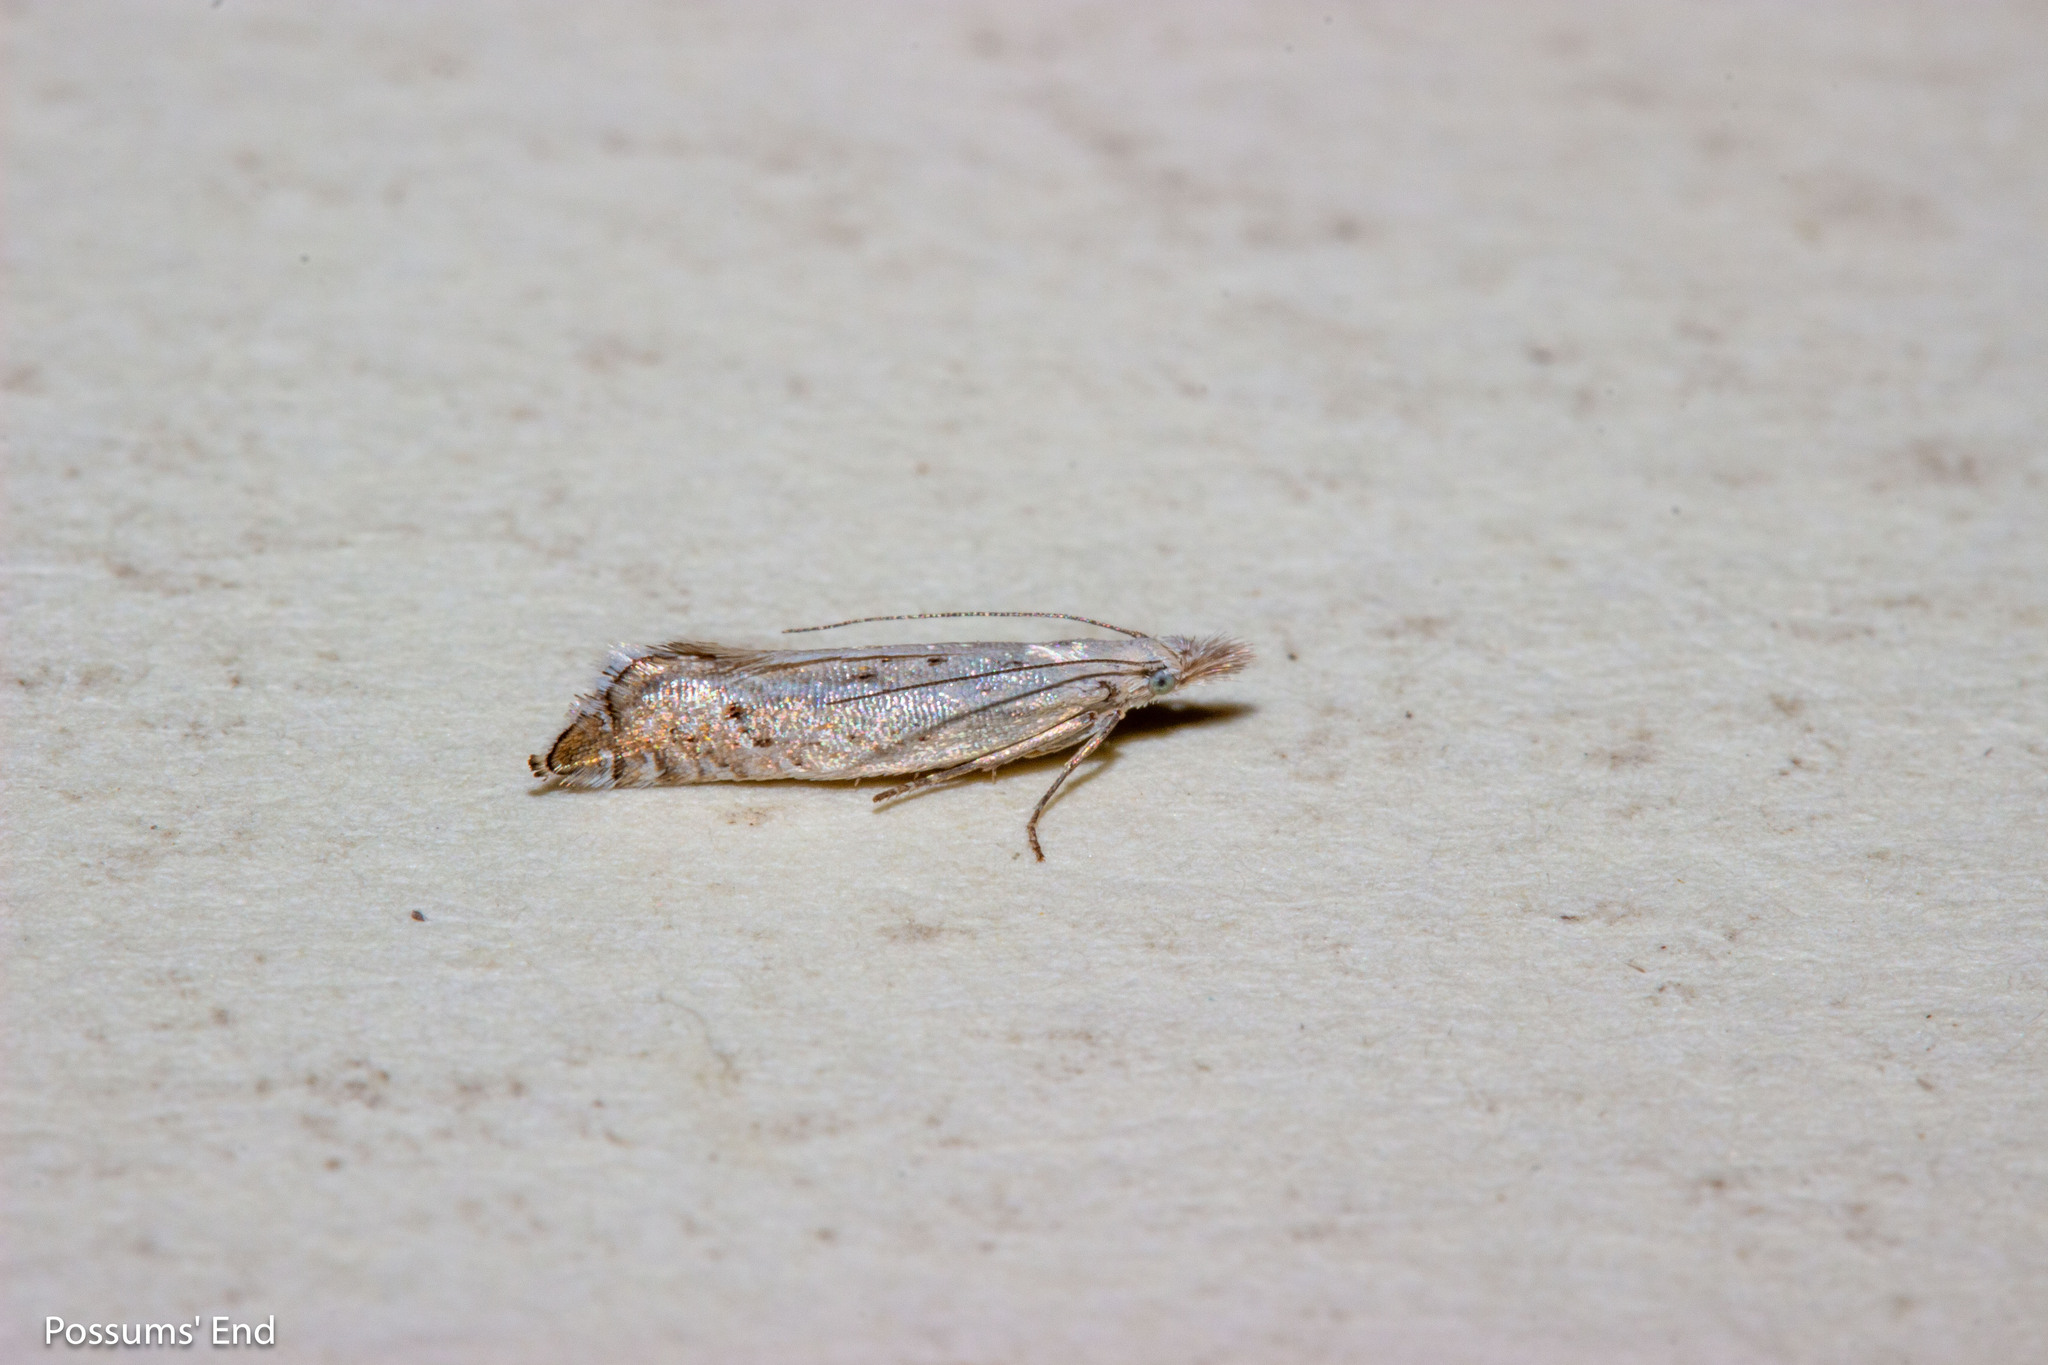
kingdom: Animalia
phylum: Arthropoda
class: Insecta
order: Lepidoptera
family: Glyphipterigidae
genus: Glyphipterix
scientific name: Glyphipterix achlyoessa
